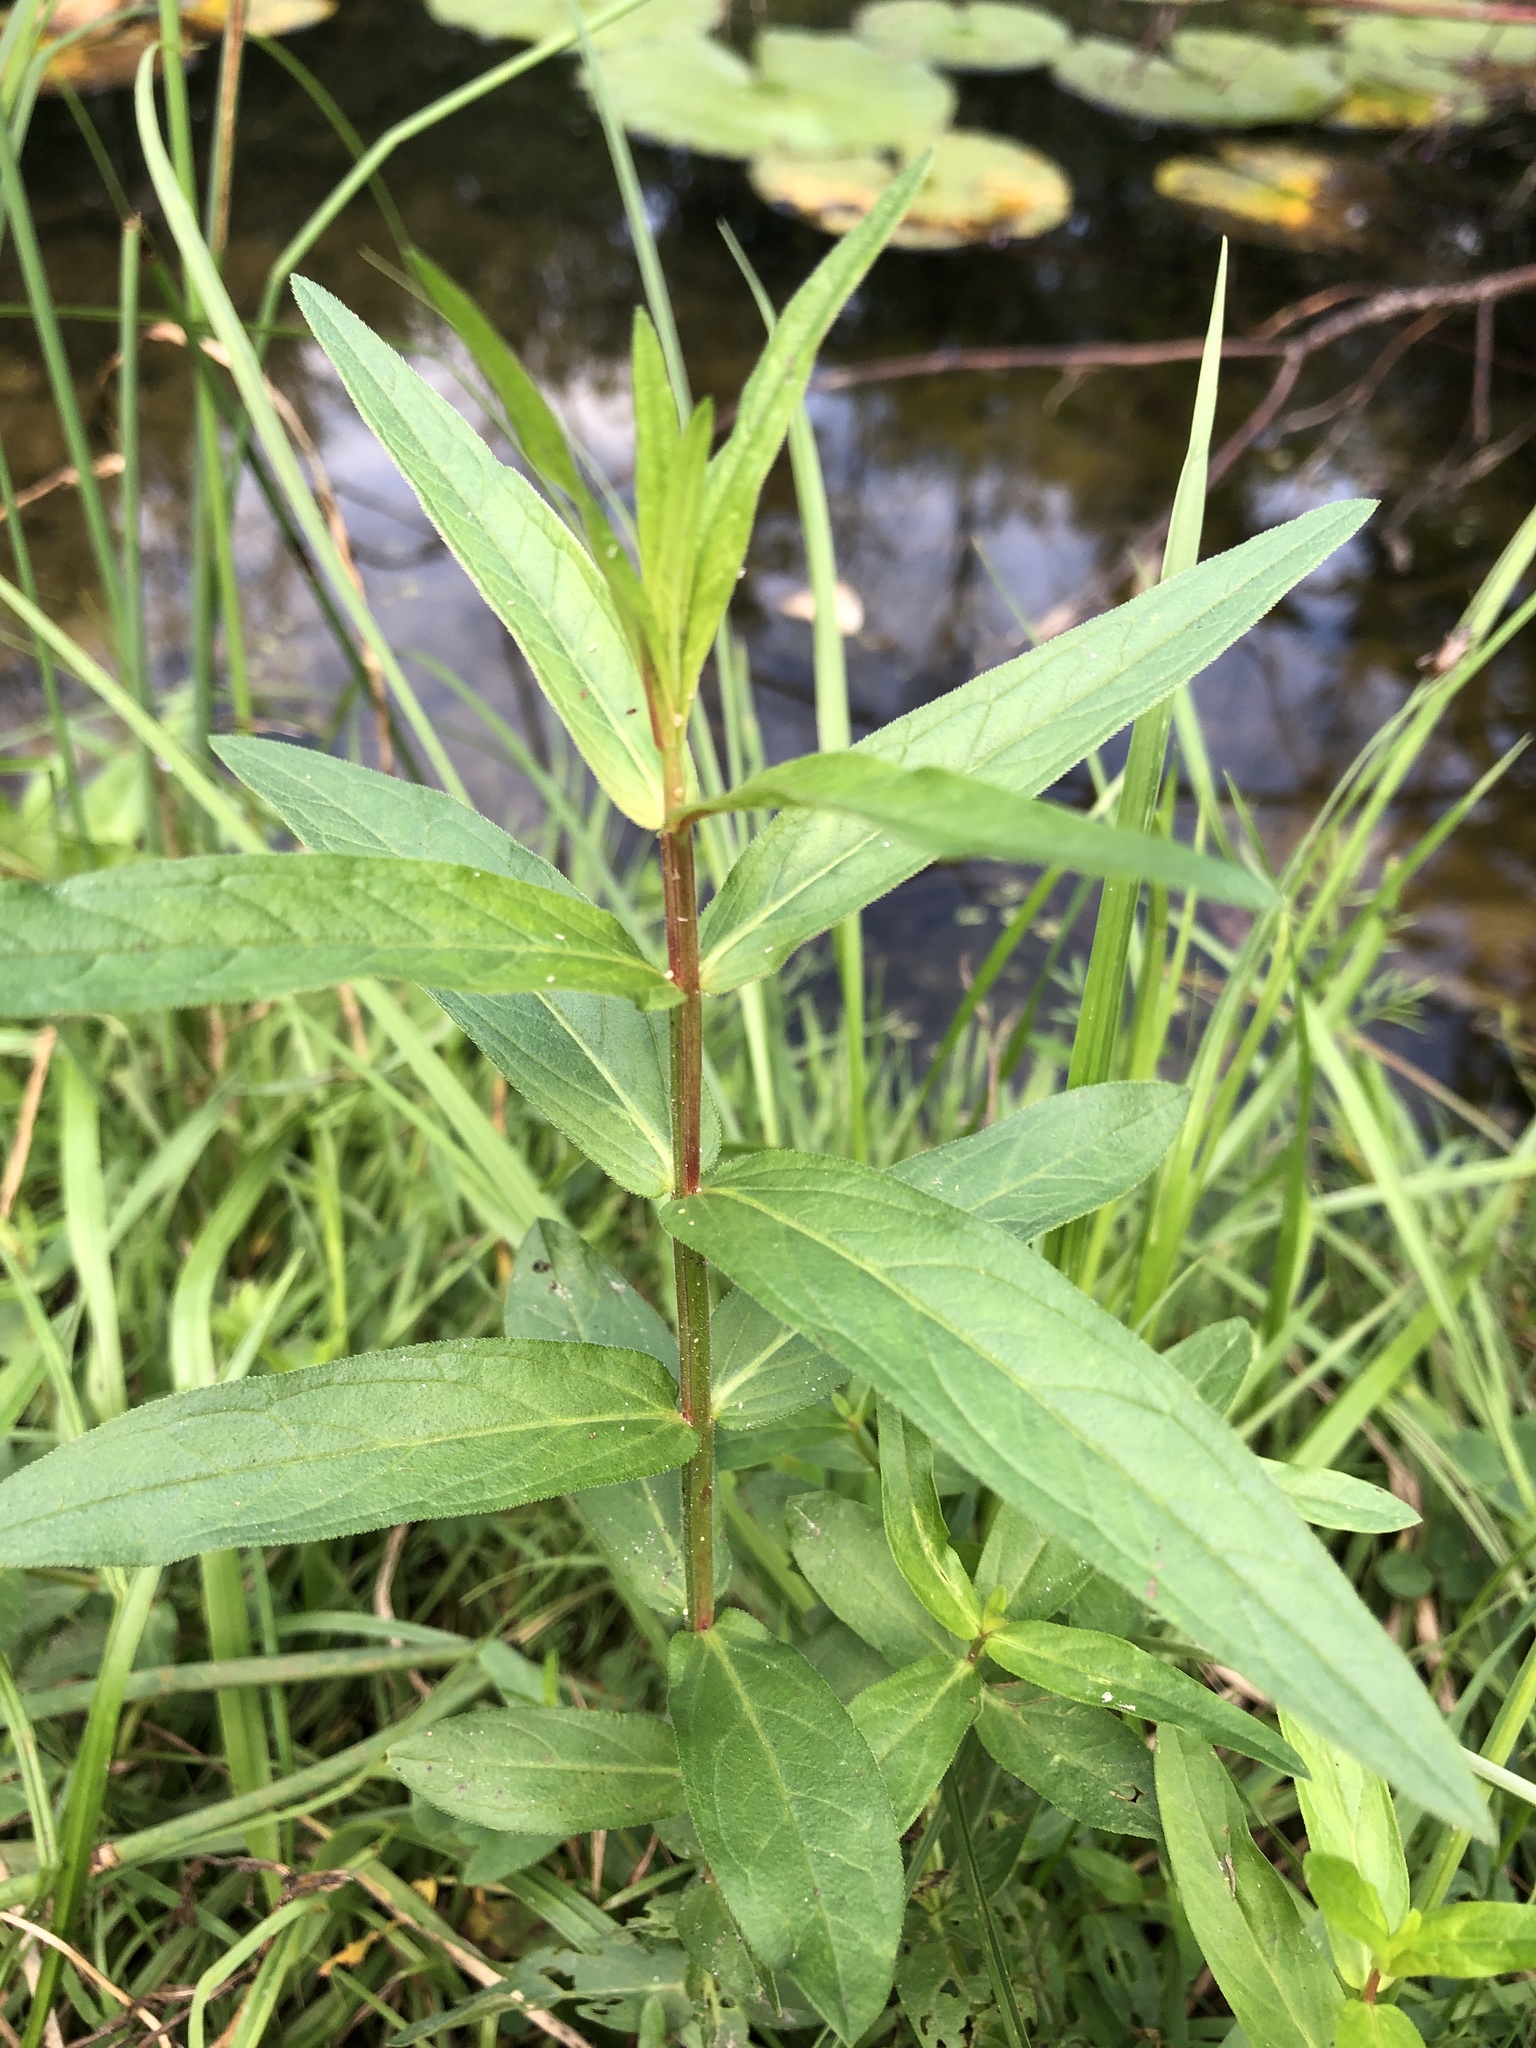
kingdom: Plantae
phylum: Tracheophyta
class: Magnoliopsida
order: Gentianales
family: Apocynaceae
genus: Asclepias
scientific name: Asclepias incarnata
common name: Swamp milkweed
